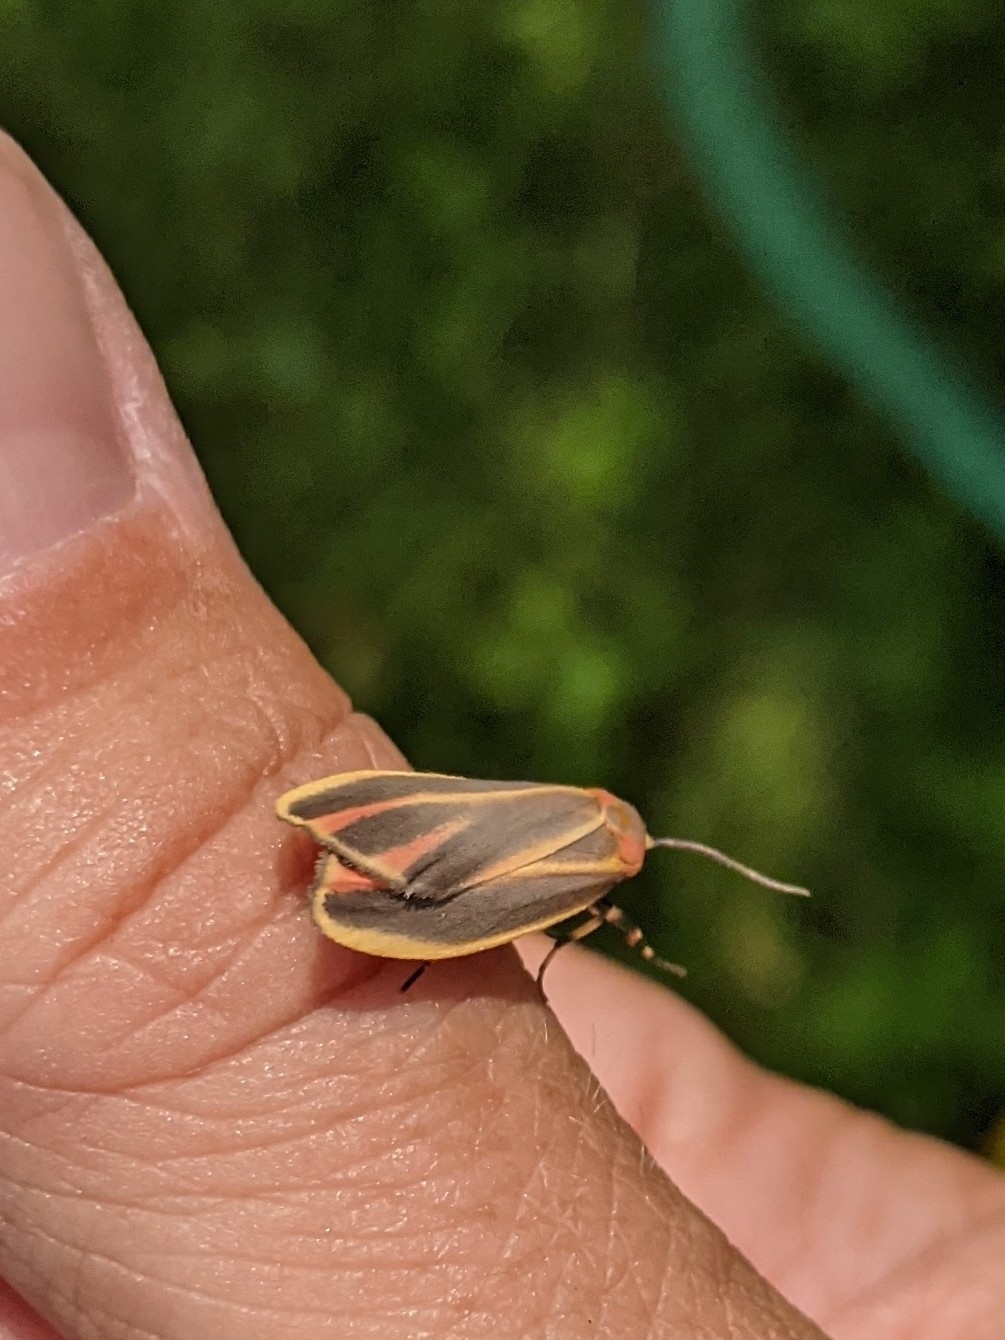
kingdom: Animalia
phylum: Arthropoda
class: Insecta
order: Lepidoptera
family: Erebidae
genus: Hypoprepia
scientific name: Hypoprepia fucosa
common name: Painted lichen moth
